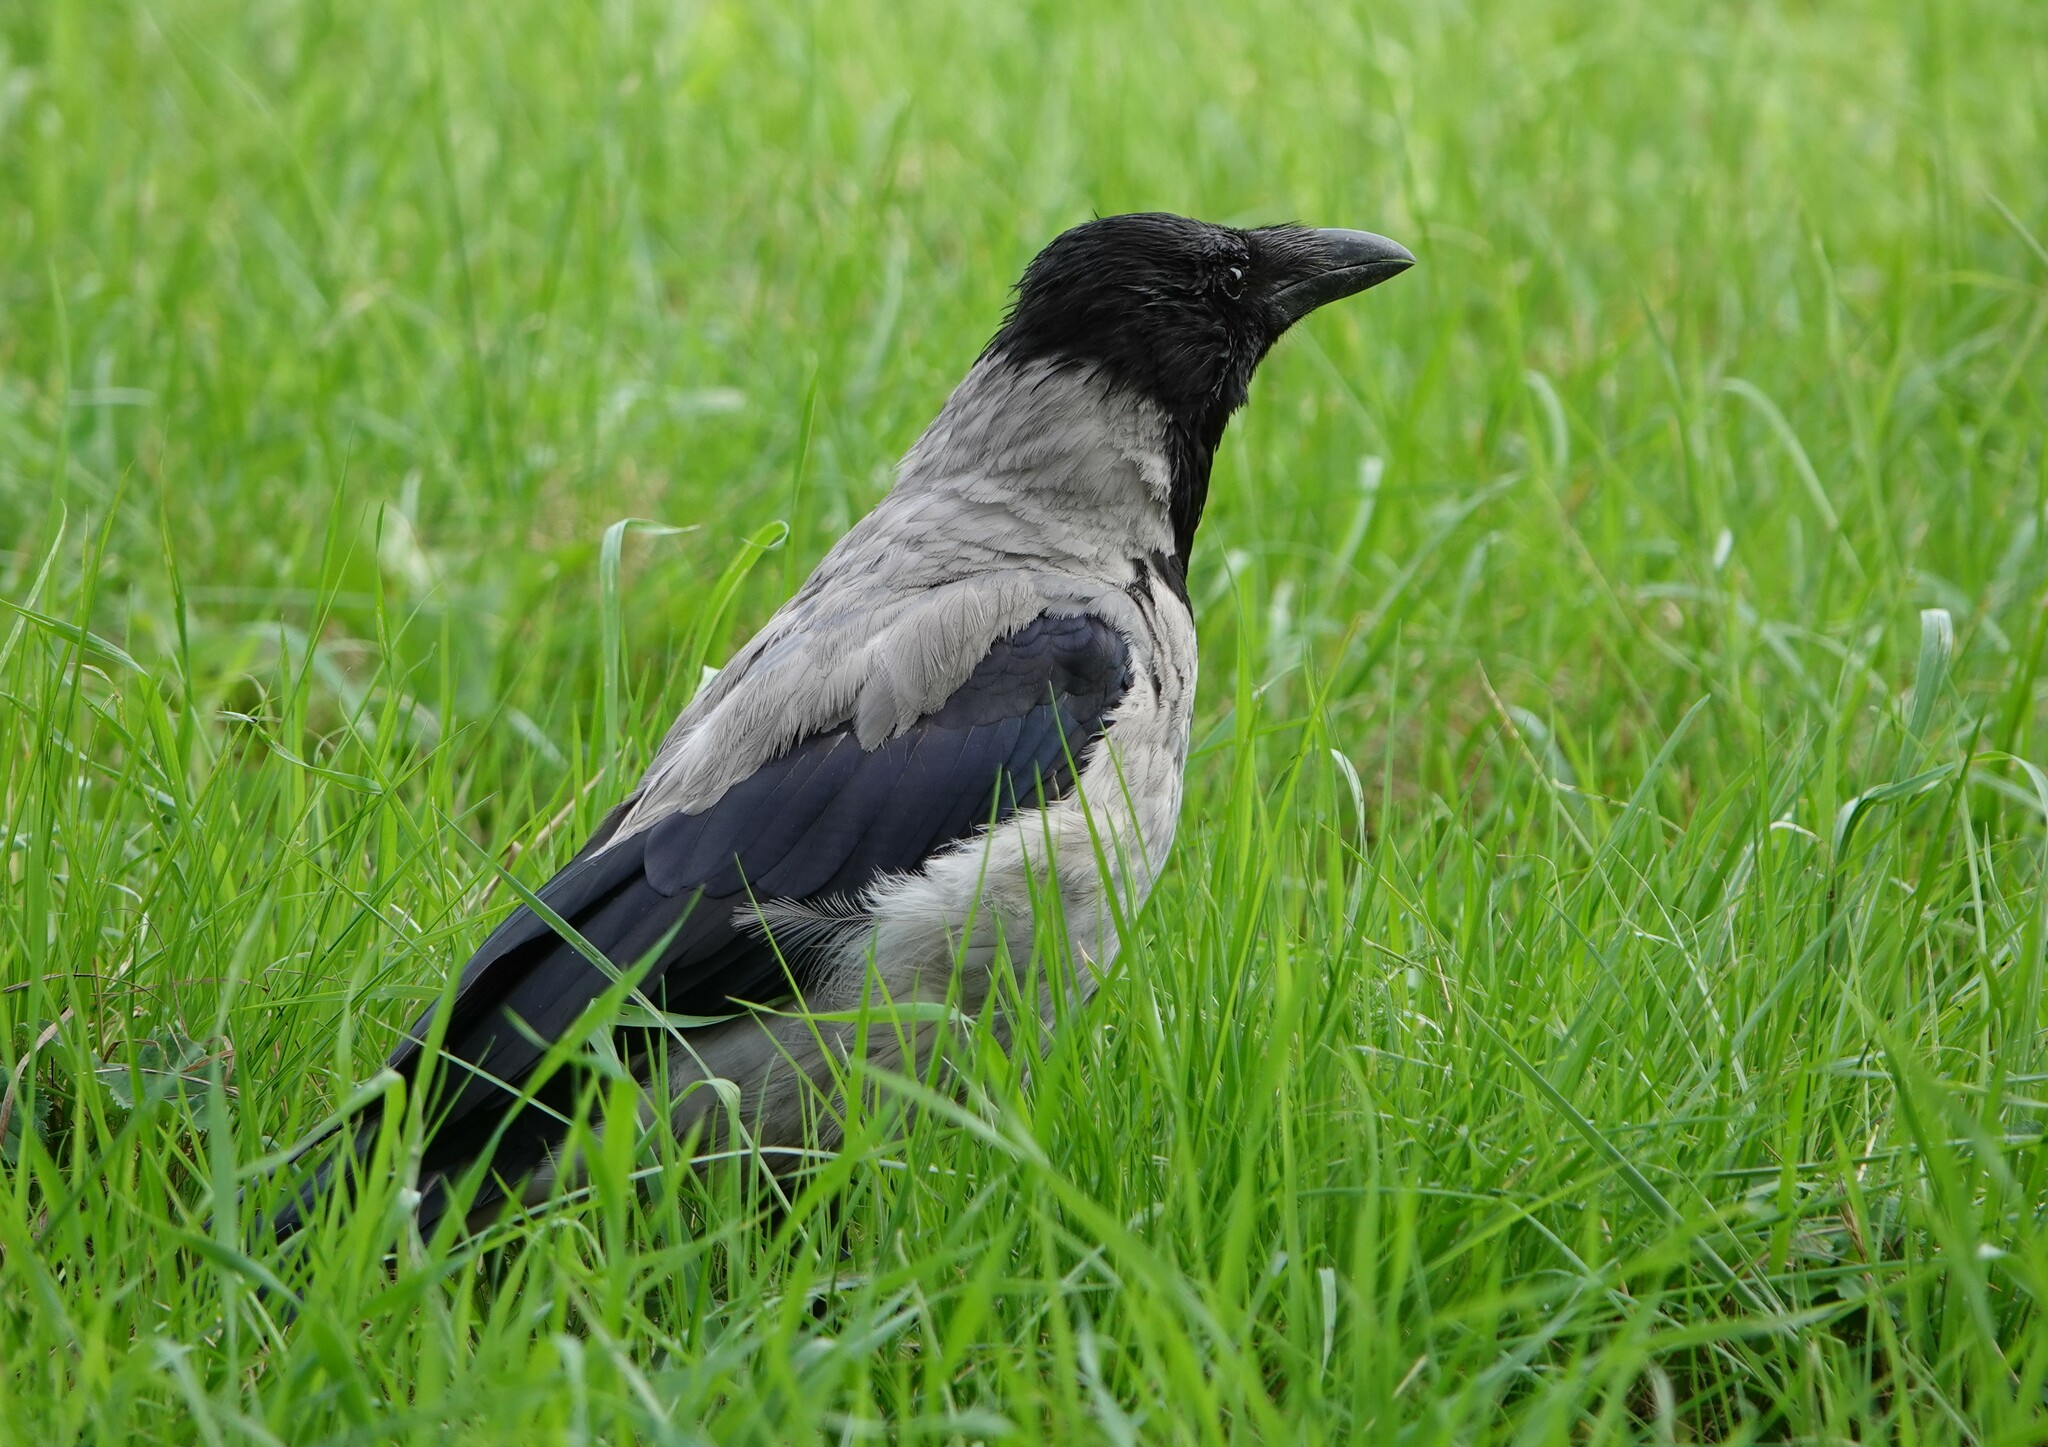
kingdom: Animalia
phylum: Chordata
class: Aves
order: Passeriformes
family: Corvidae
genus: Corvus
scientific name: Corvus cornix
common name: Hooded crow
